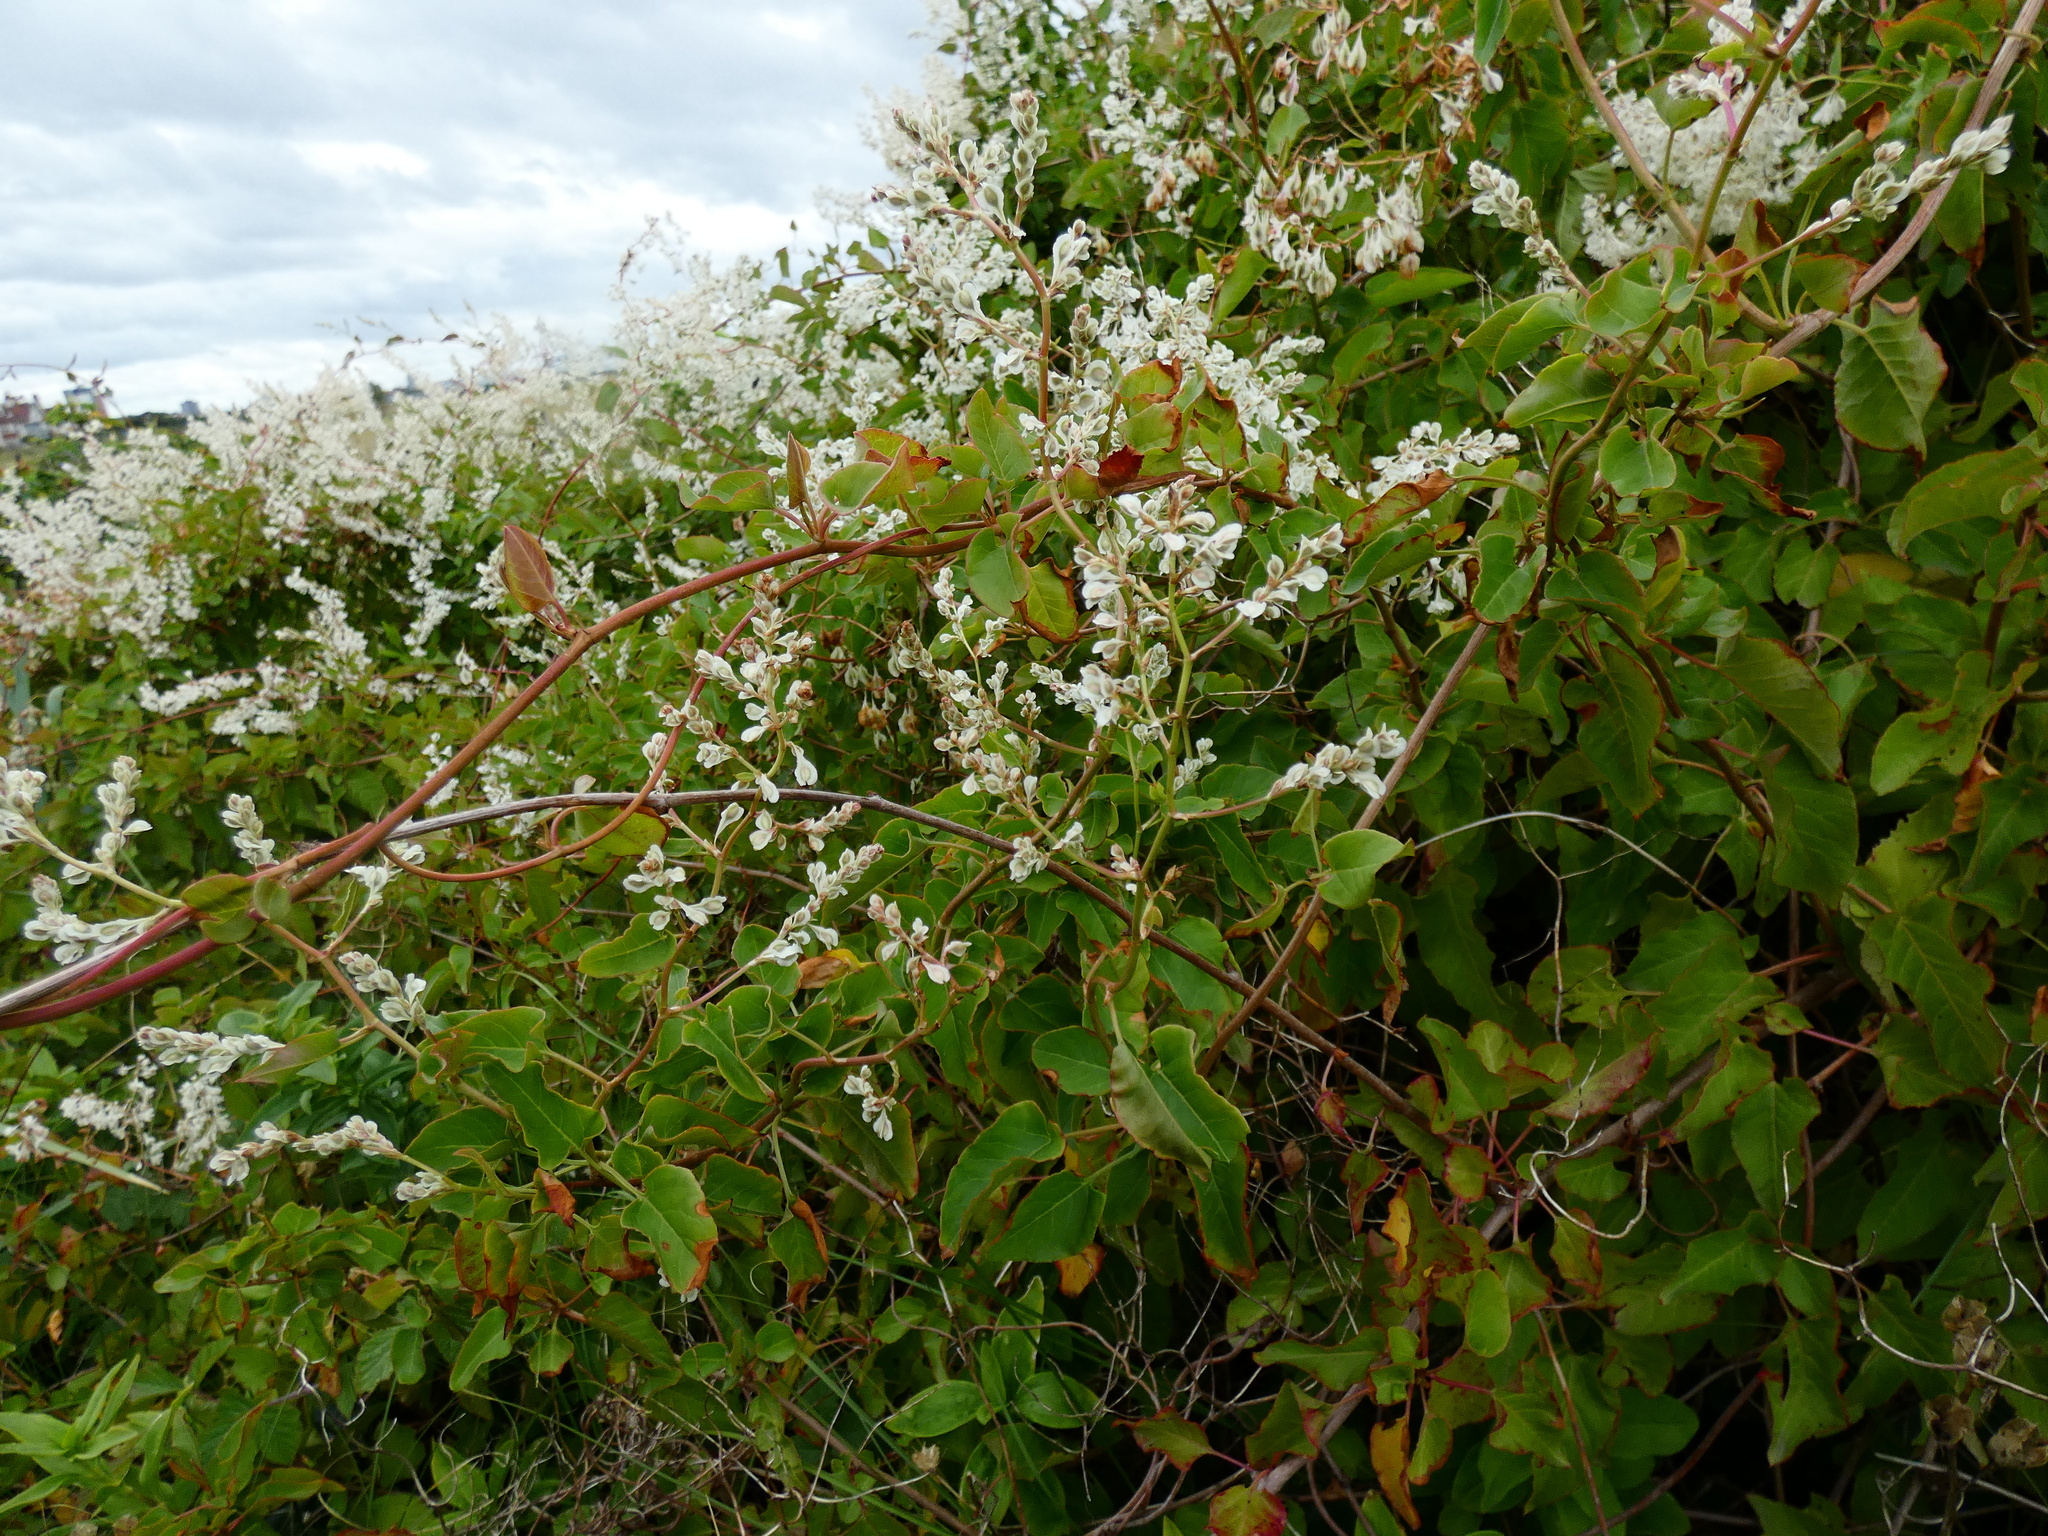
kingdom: Plantae
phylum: Tracheophyta
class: Magnoliopsida
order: Caryophyllales
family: Polygonaceae
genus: Fallopia
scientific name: Fallopia baldschuanica
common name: Russian-vine
